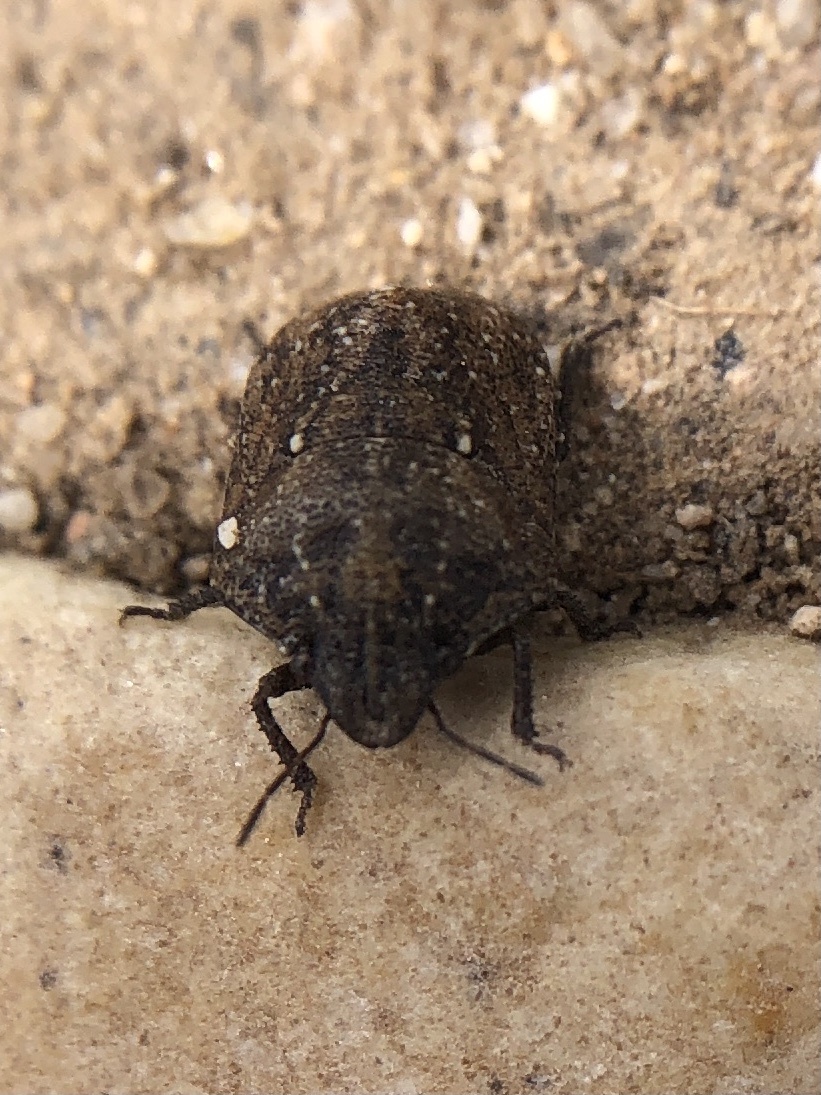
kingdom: Animalia
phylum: Arthropoda
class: Insecta
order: Hemiptera
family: Scutelleridae
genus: Psacasta
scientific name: Psacasta granulata
